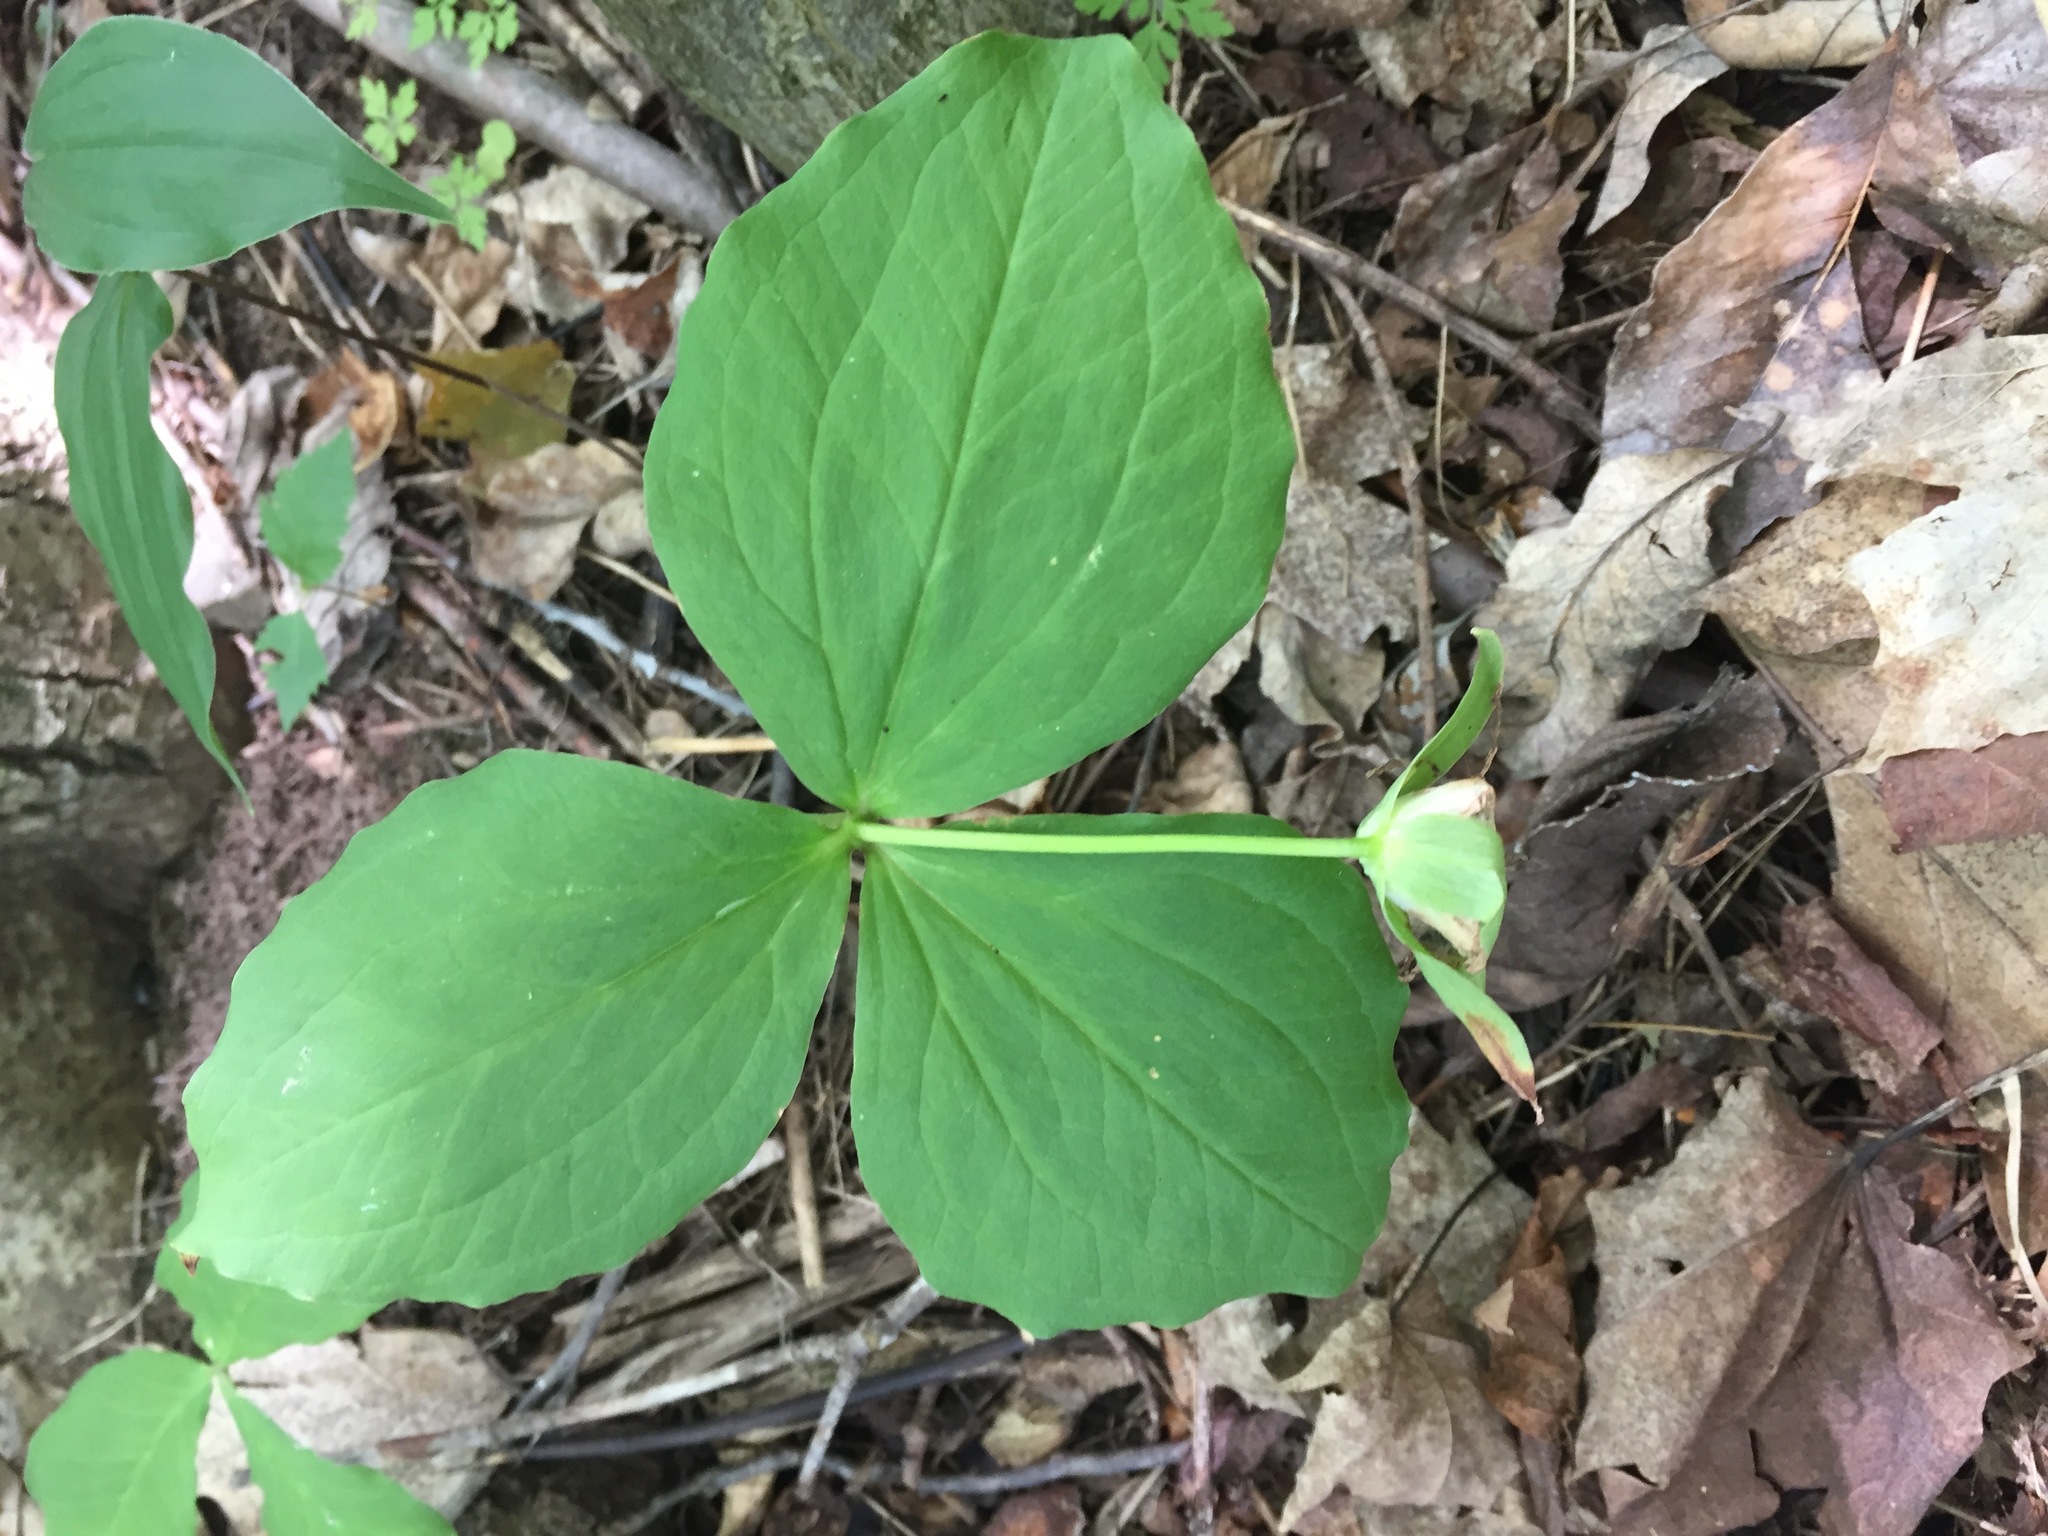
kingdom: Plantae
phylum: Tracheophyta
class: Liliopsida
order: Liliales
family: Melanthiaceae
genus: Trillium
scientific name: Trillium grandiflorum
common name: Great white trillium
